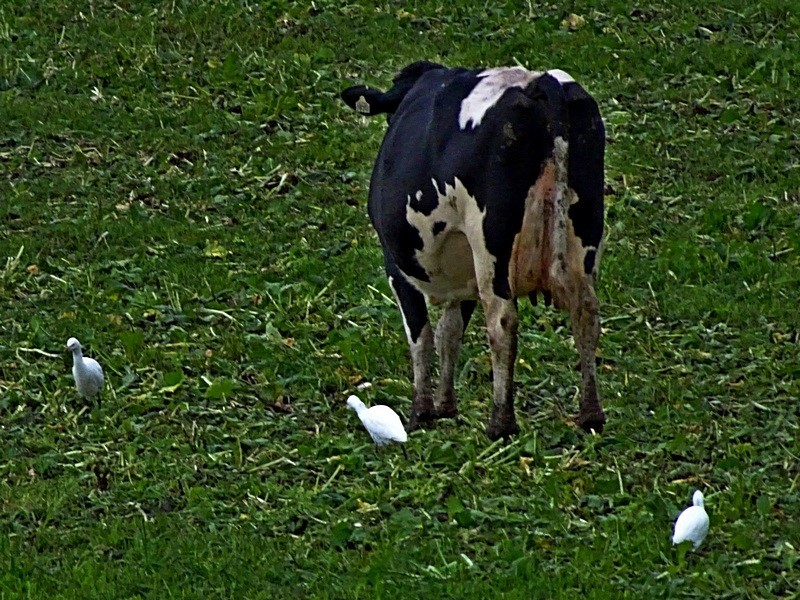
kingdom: Animalia
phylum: Chordata
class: Aves
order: Pelecaniformes
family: Ardeidae
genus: Bubulcus
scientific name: Bubulcus coromandus
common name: Eastern cattle egret
